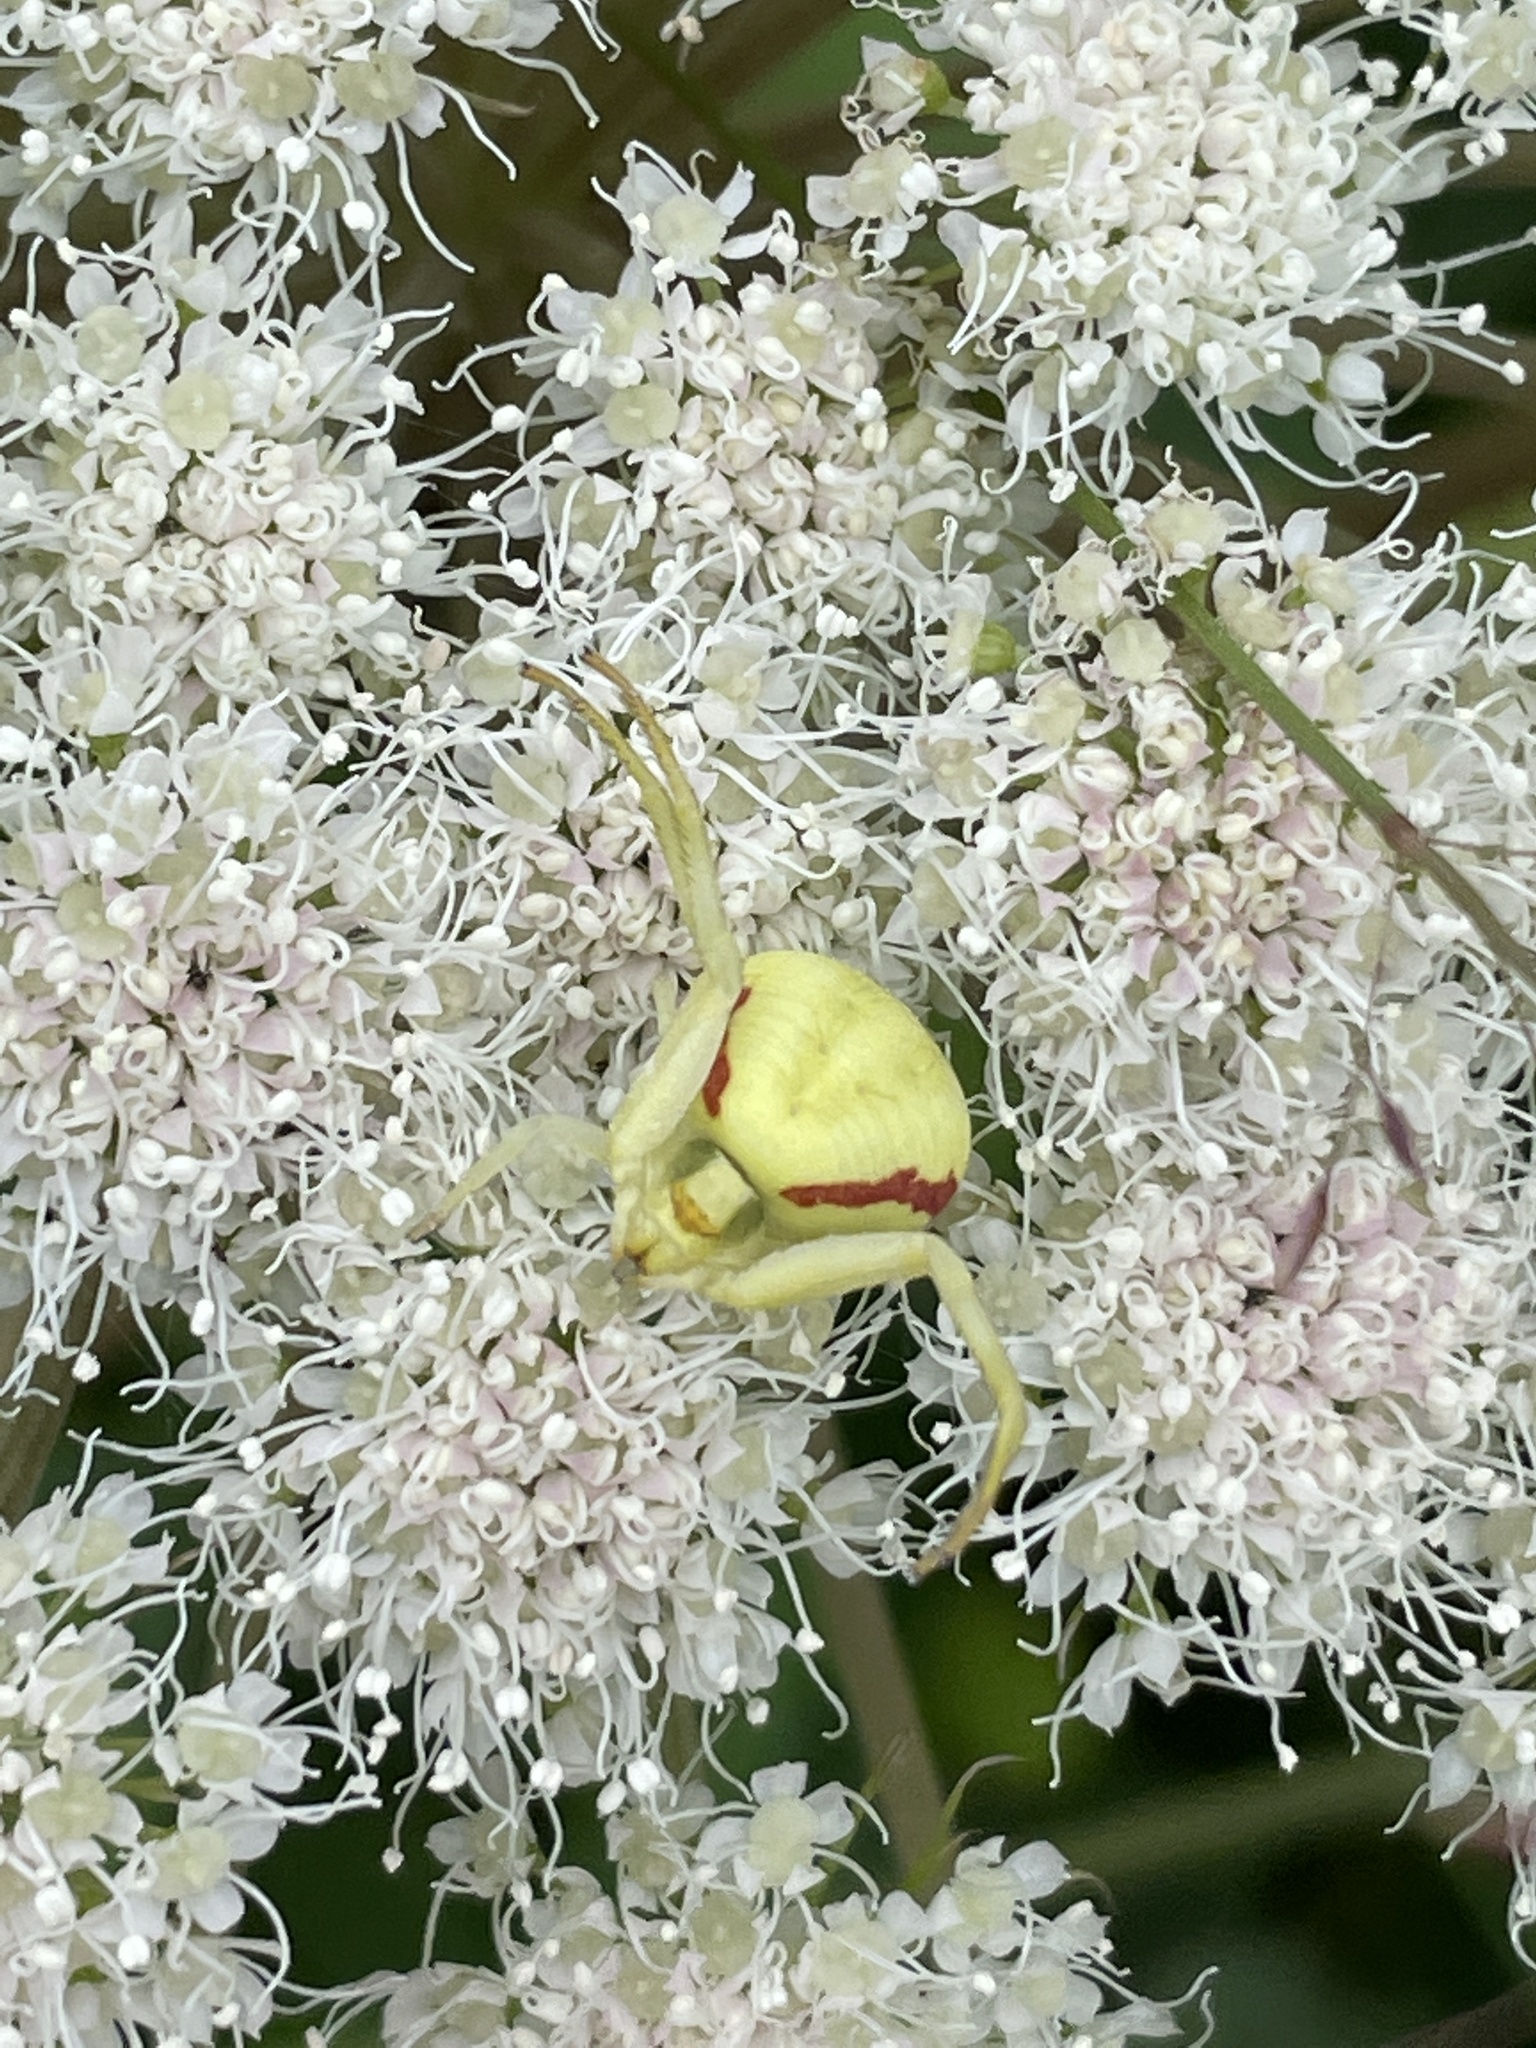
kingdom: Animalia
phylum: Arthropoda
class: Arachnida
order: Araneae
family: Thomisidae
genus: Misumena
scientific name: Misumena vatia
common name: Goldenrod crab spider
